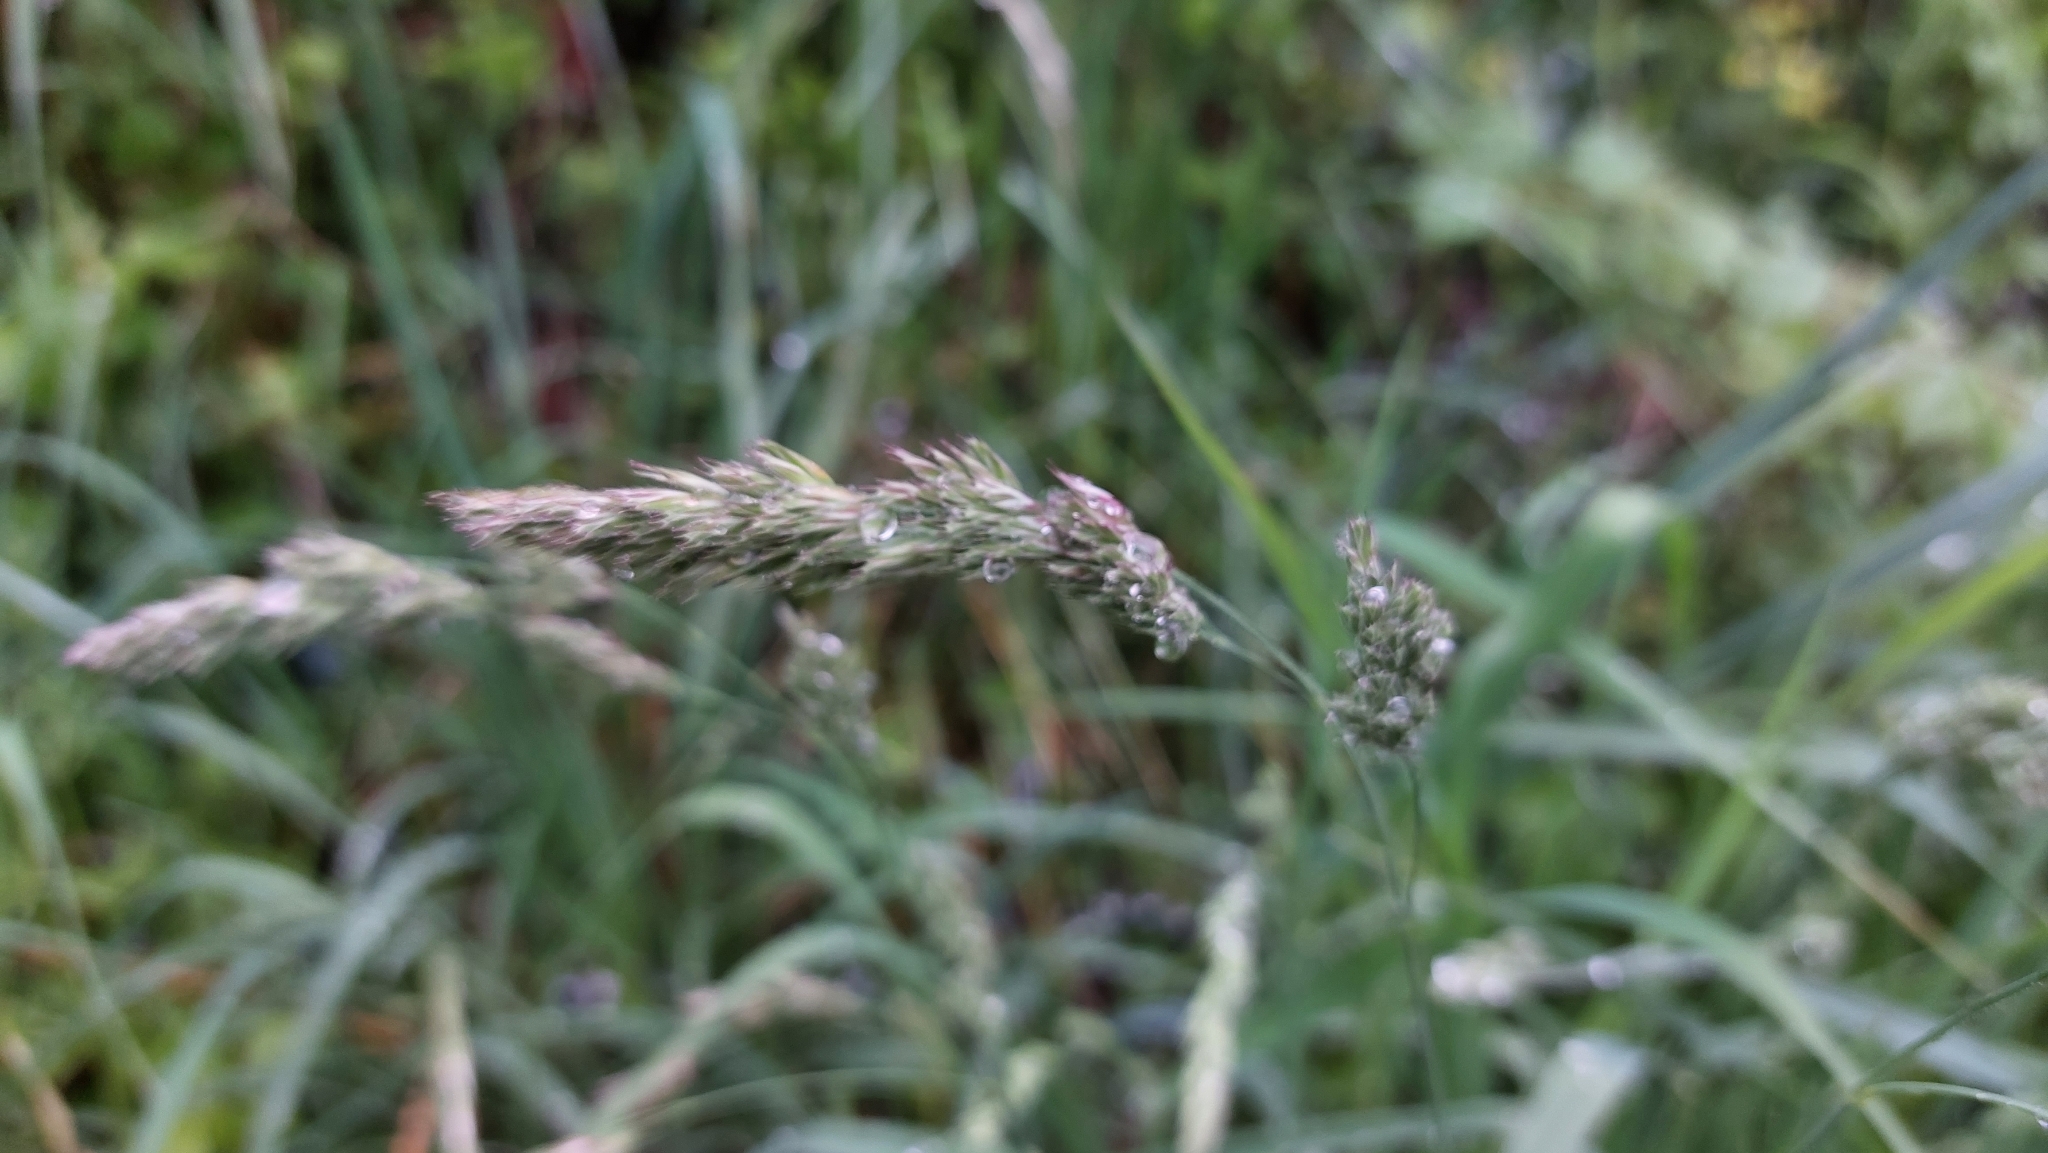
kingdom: Plantae
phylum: Tracheophyta
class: Liliopsida
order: Poales
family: Poaceae
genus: Dactylis
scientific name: Dactylis glomerata
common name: Orchardgrass
